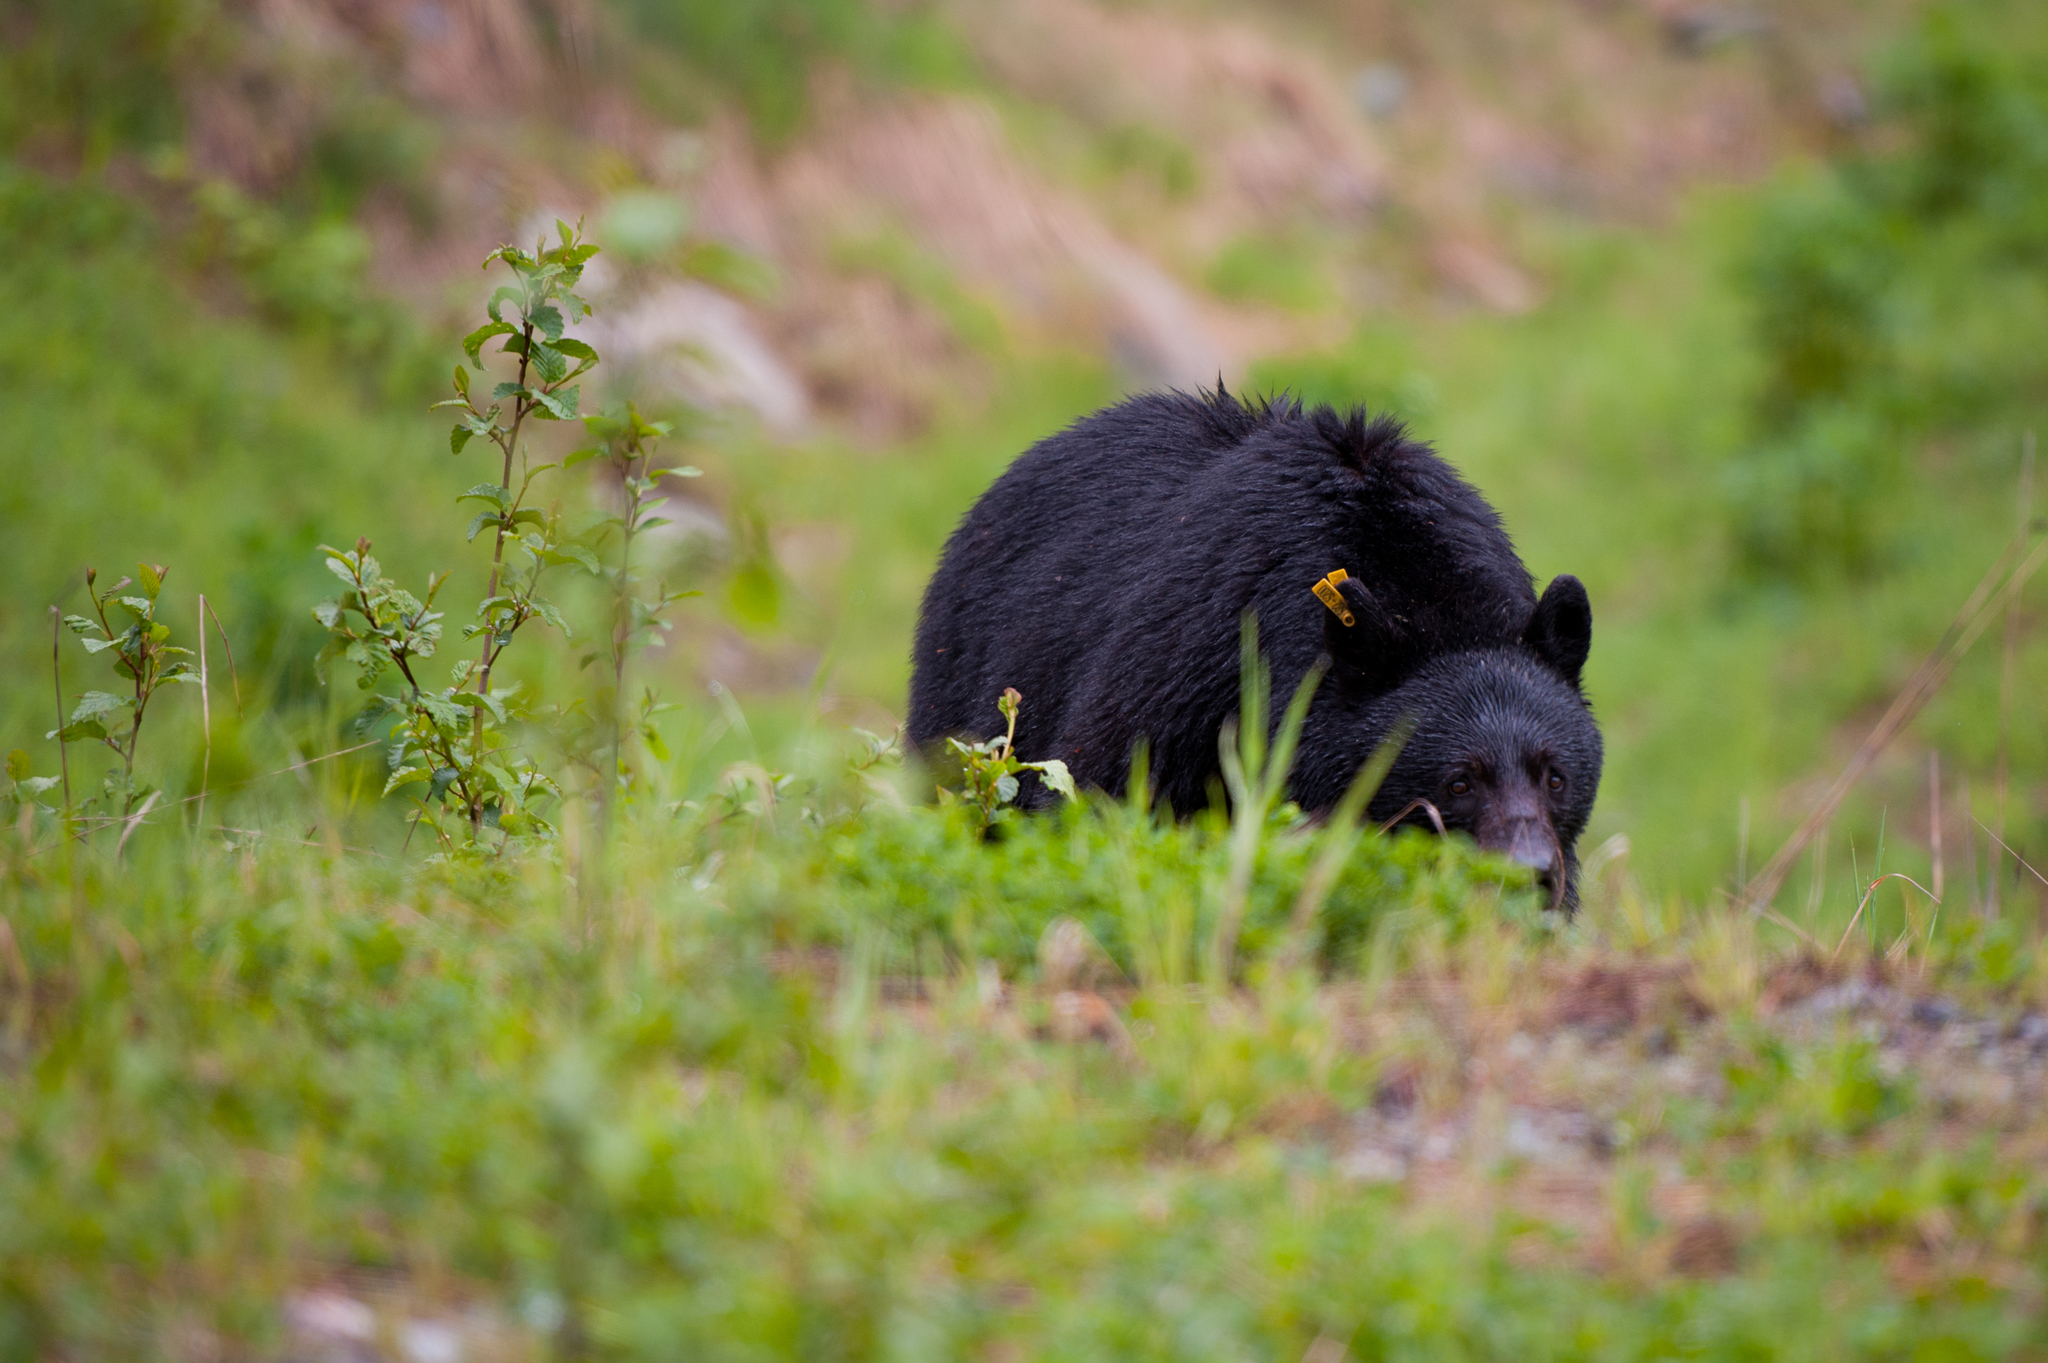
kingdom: Animalia
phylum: Chordata
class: Mammalia
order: Carnivora
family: Ursidae
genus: Ursus
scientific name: Ursus americanus
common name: American black bear
